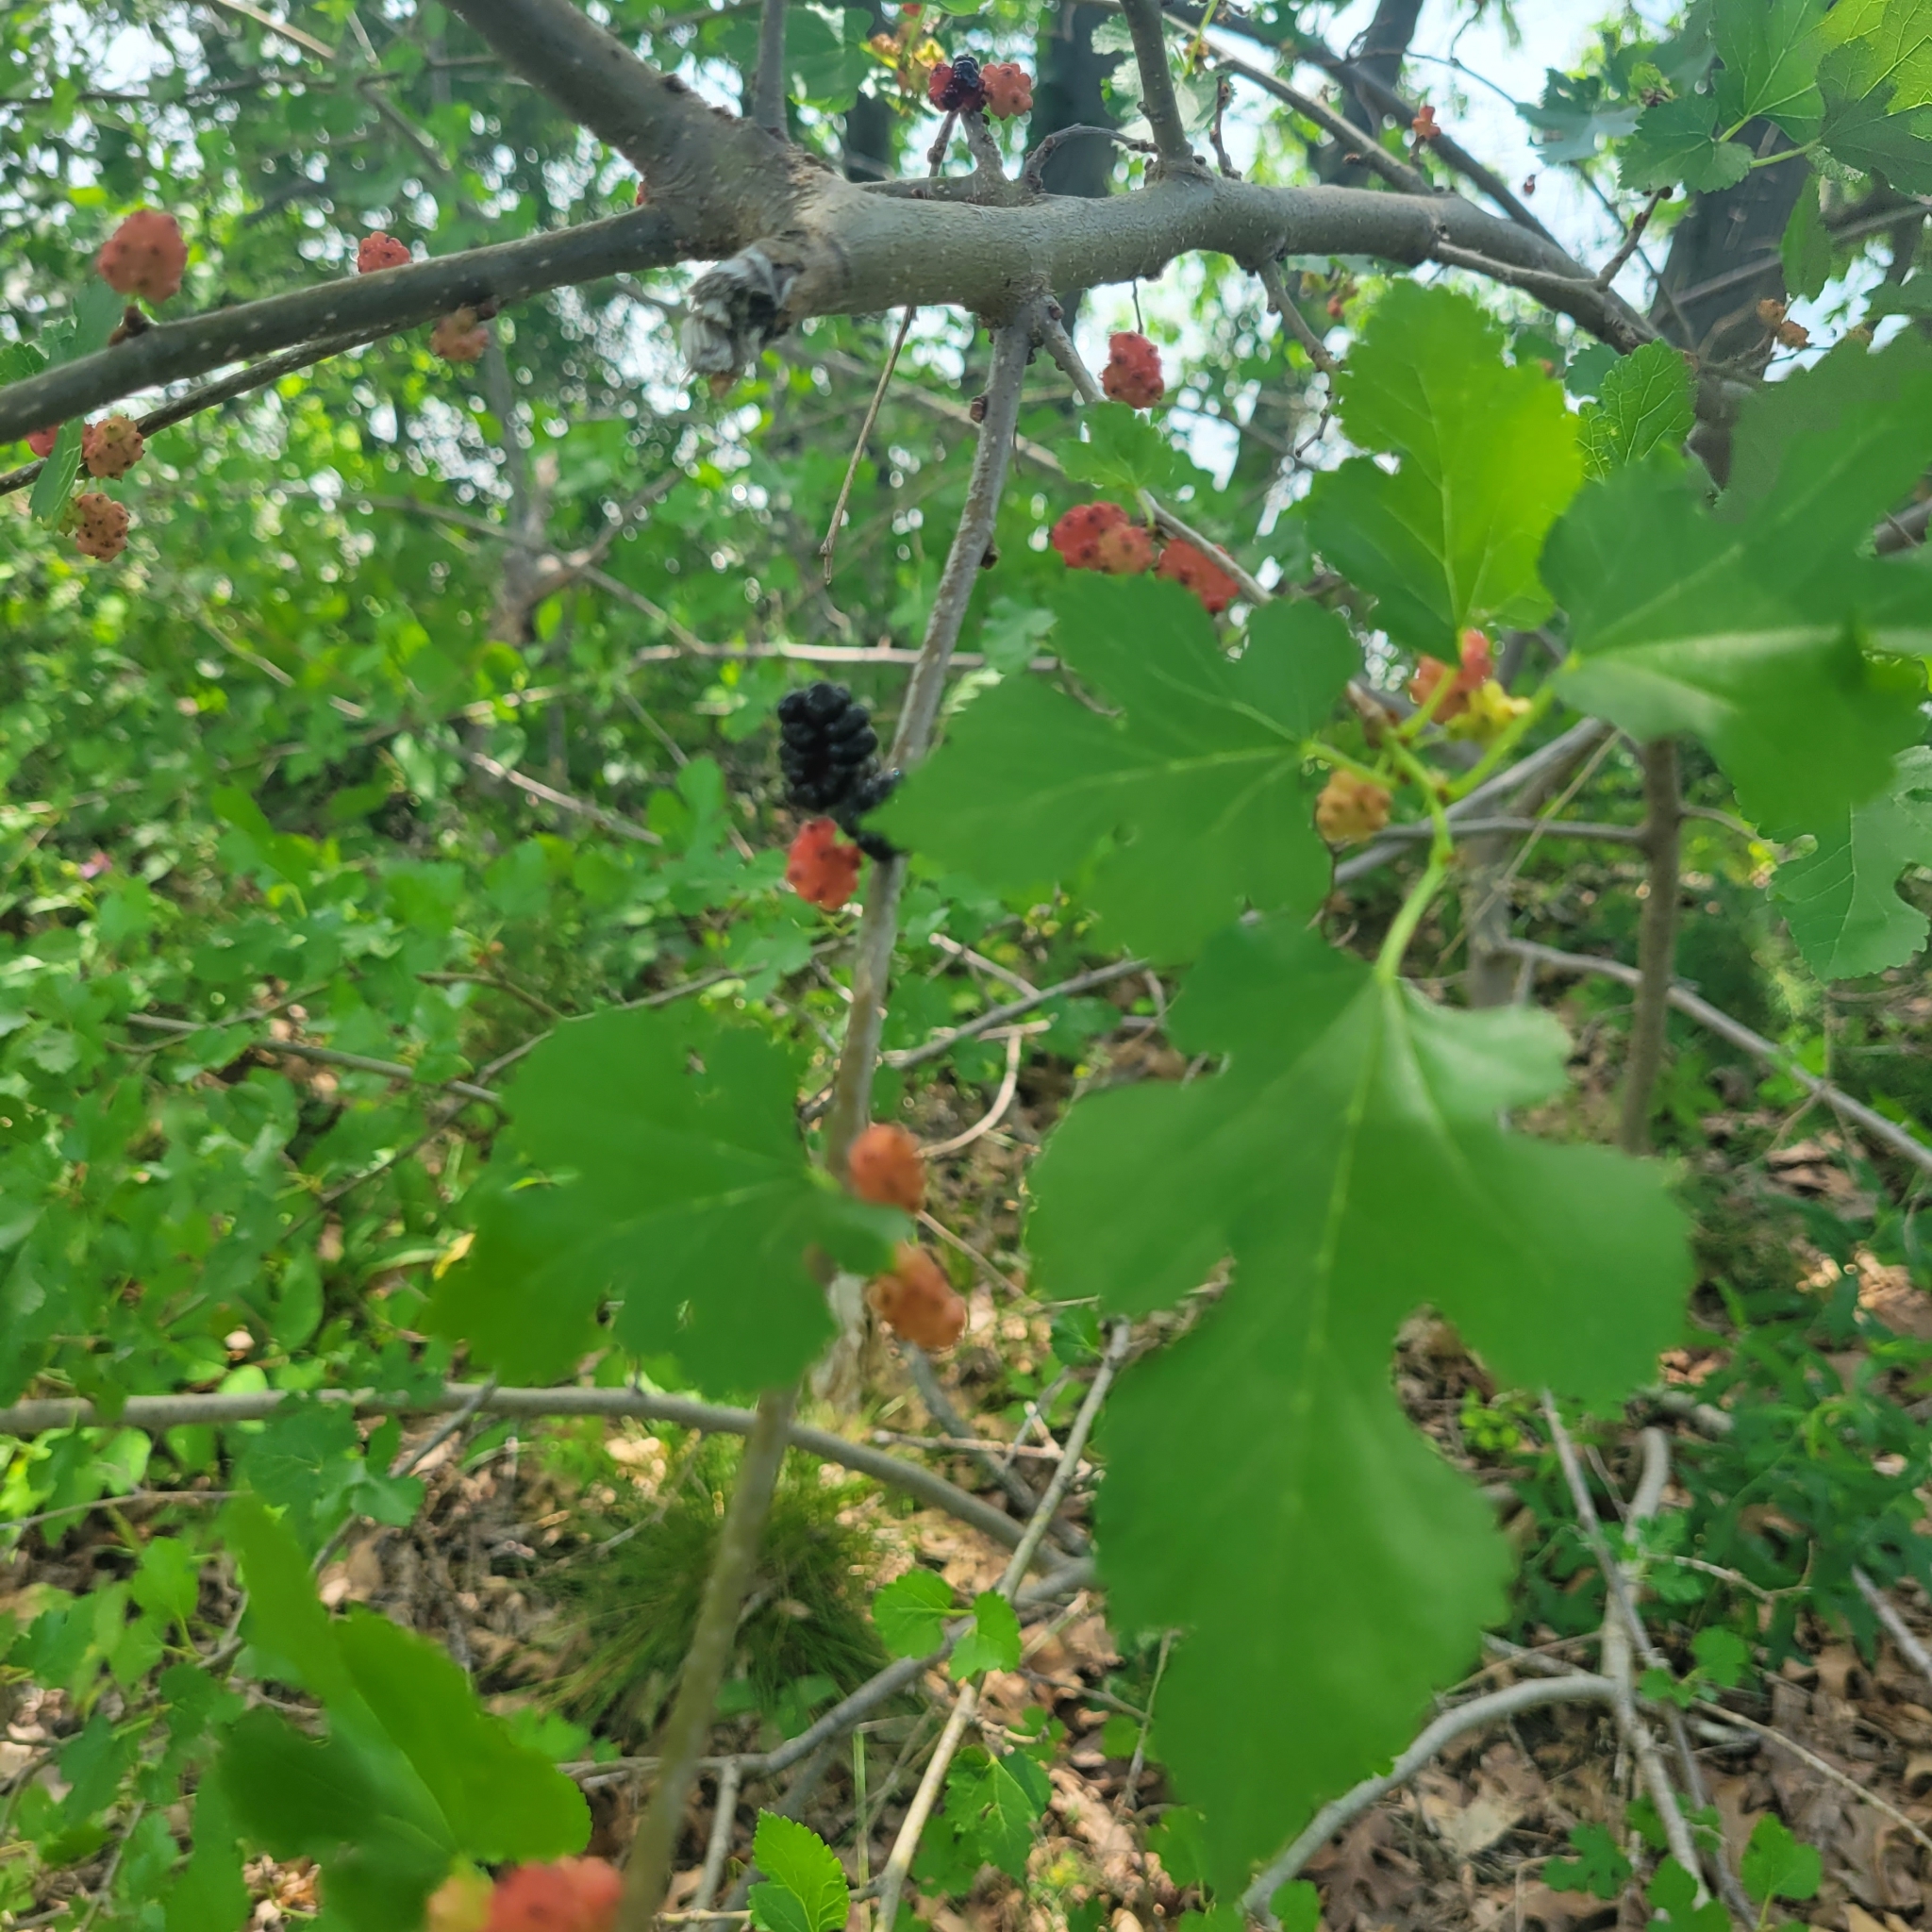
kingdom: Plantae
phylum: Tracheophyta
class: Magnoliopsida
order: Rosales
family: Moraceae
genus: Morus
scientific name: Morus alba
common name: White mulberry
